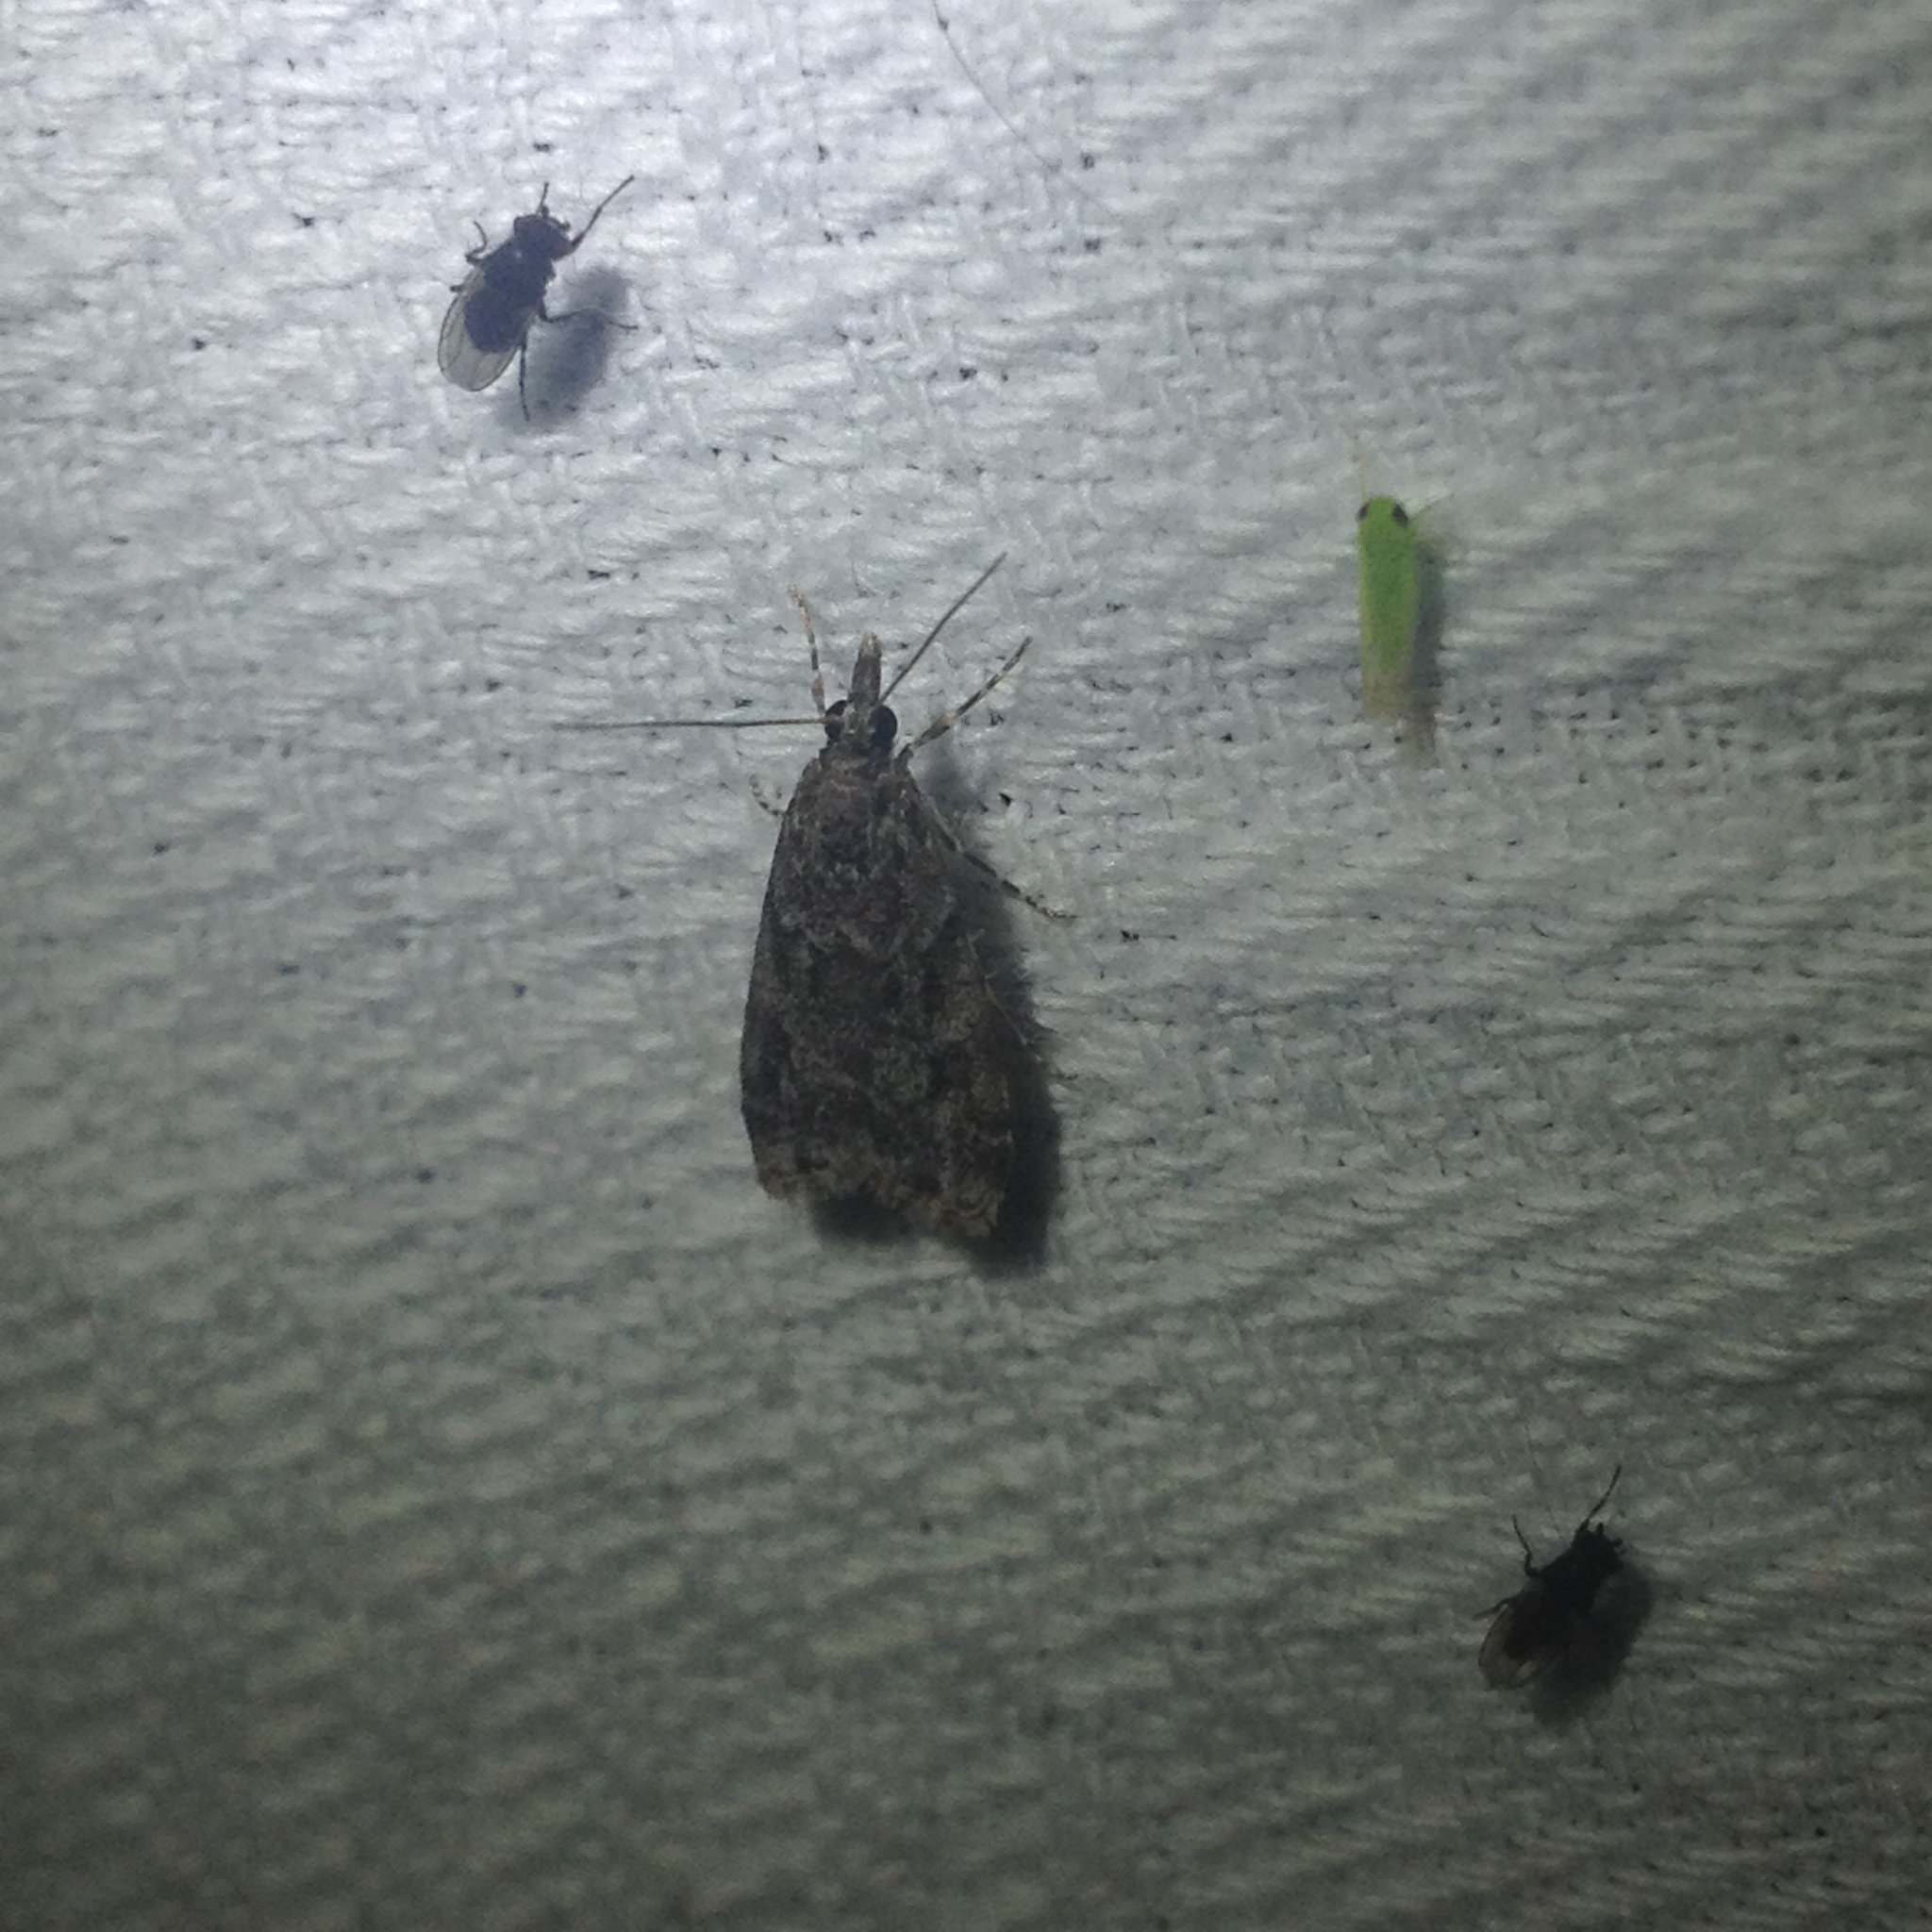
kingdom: Animalia
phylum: Arthropoda
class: Insecta
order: Lepidoptera
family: Crambidae
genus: Scoparia
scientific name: Scoparia biplagialis
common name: Double-striped scoparia moth
